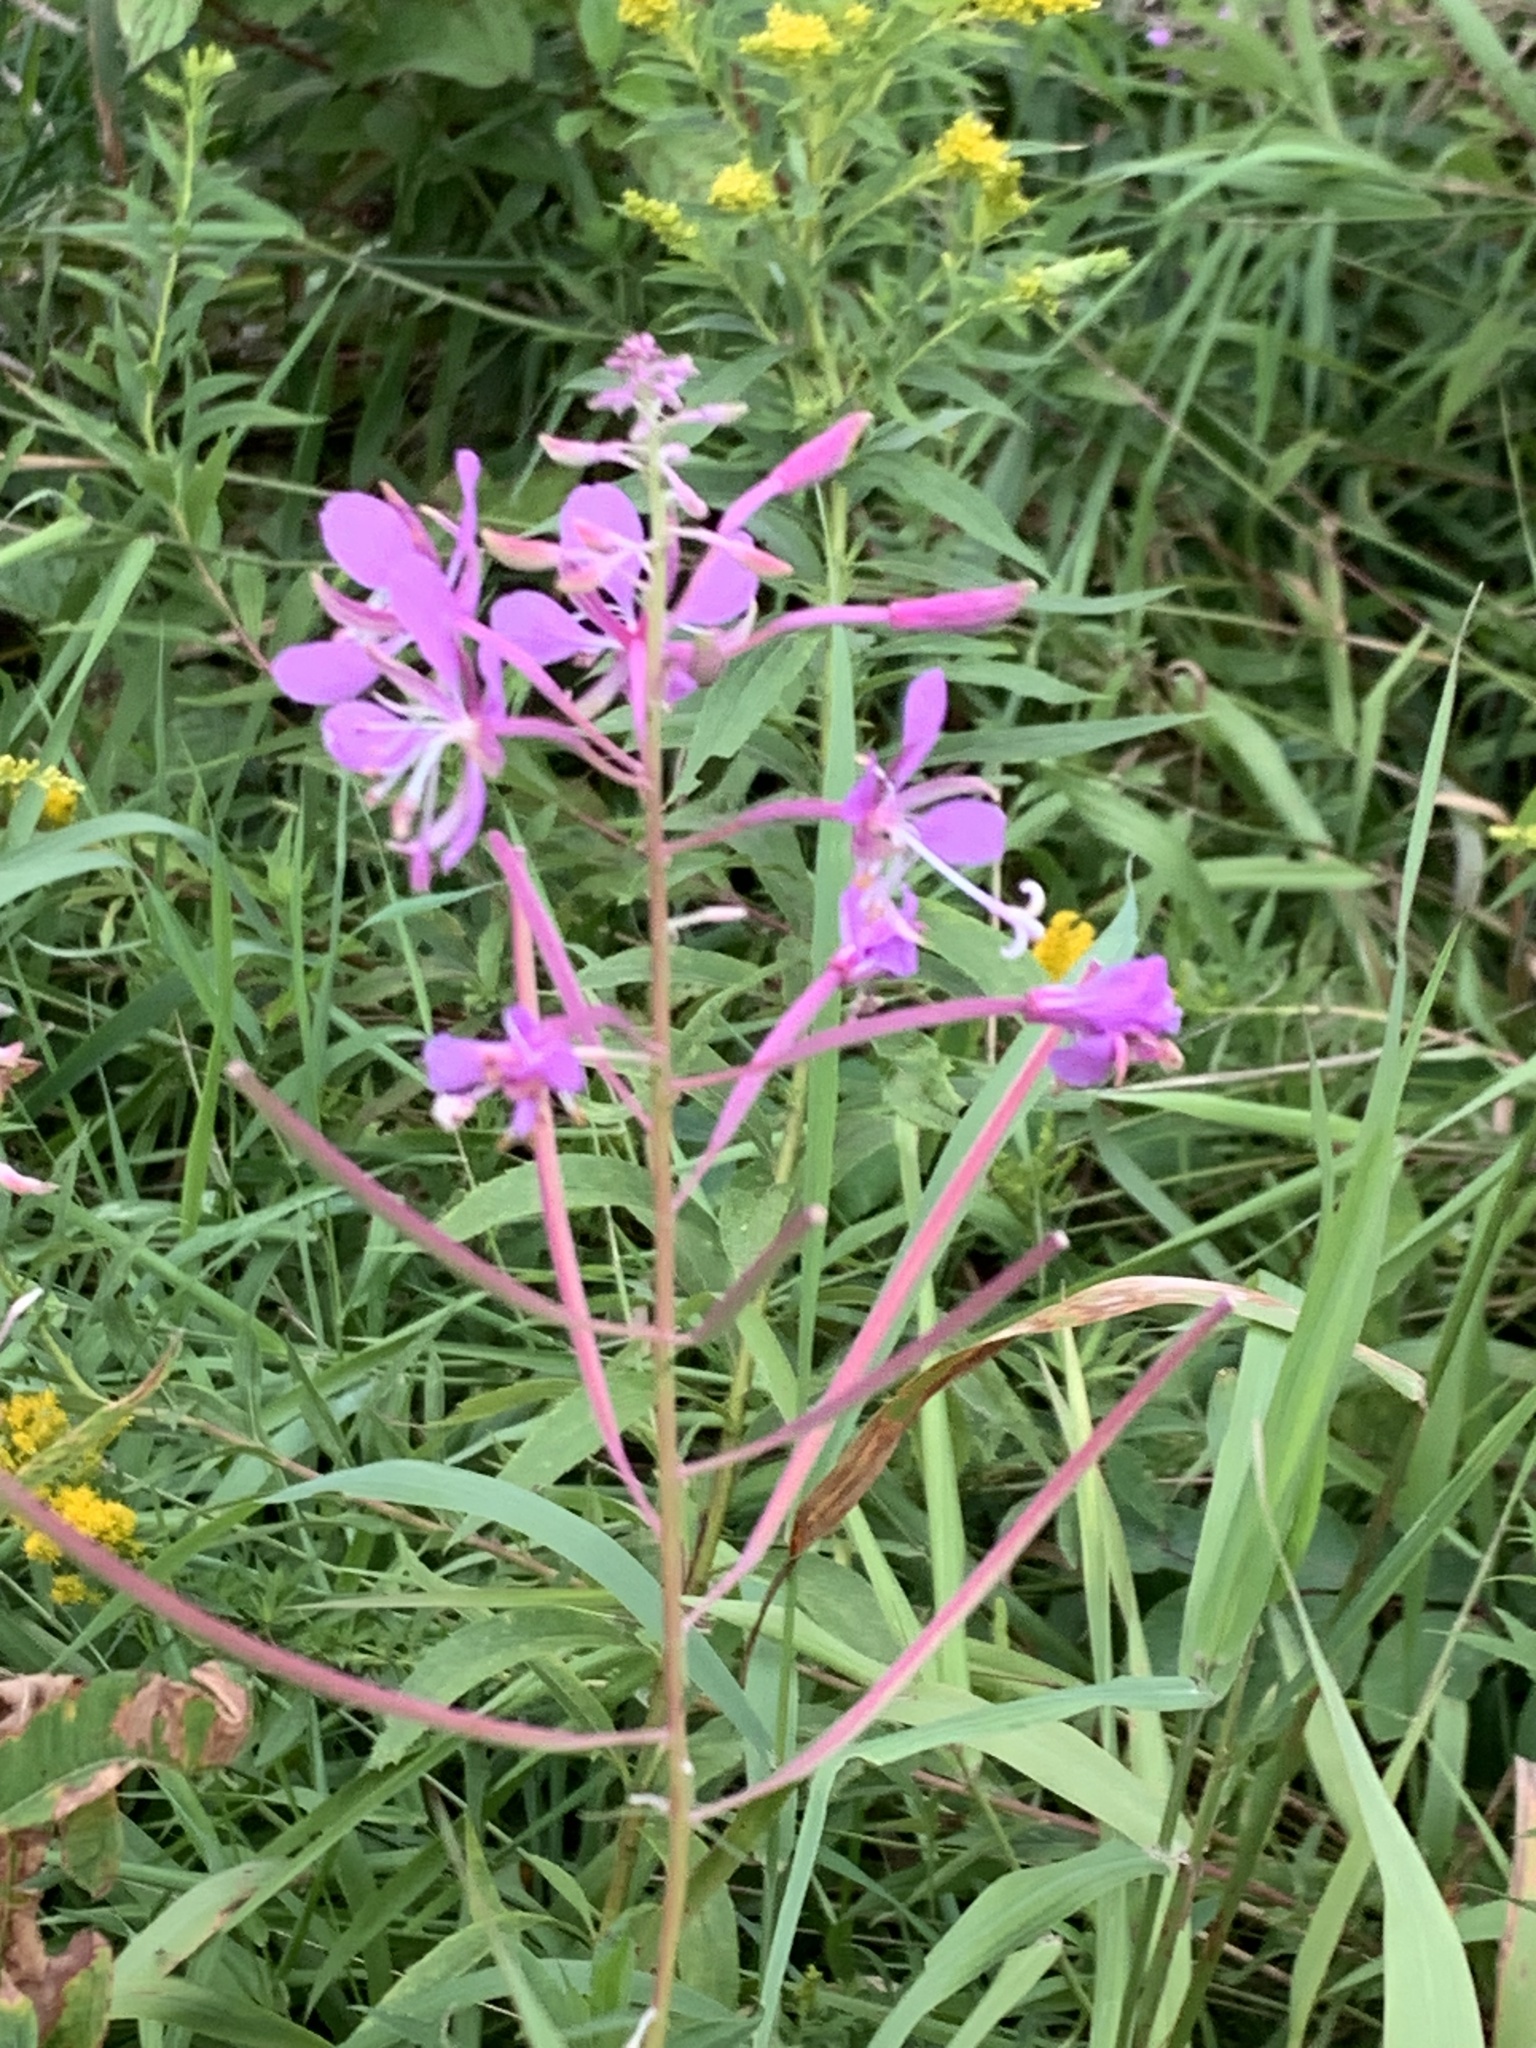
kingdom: Plantae
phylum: Tracheophyta
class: Magnoliopsida
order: Myrtales
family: Onagraceae
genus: Chamaenerion
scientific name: Chamaenerion angustifolium
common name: Fireweed
